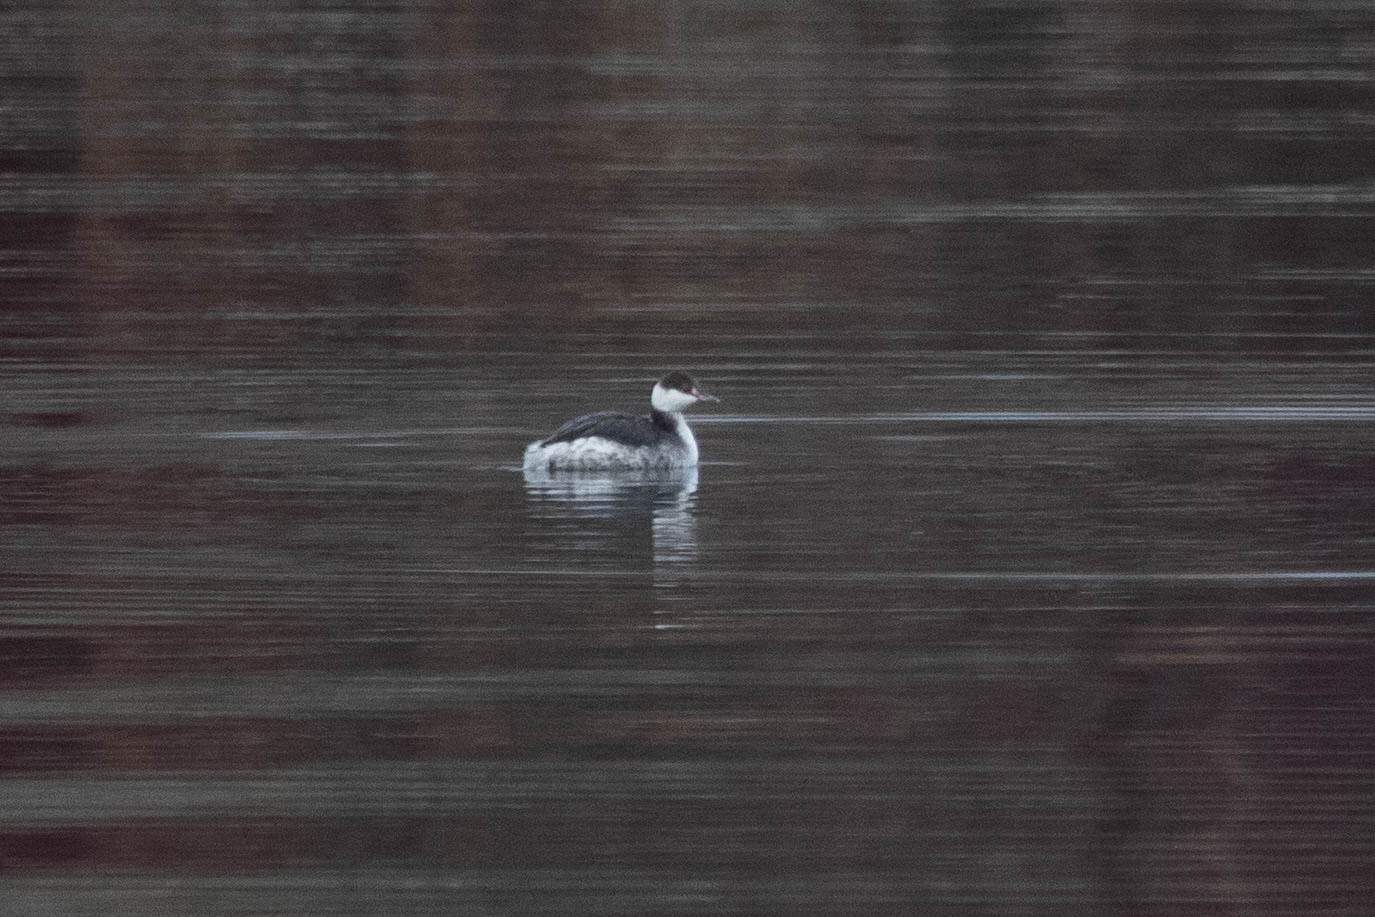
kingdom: Animalia
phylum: Chordata
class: Aves
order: Podicipediformes
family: Podicipedidae
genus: Podiceps
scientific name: Podiceps auritus
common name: Horned grebe
